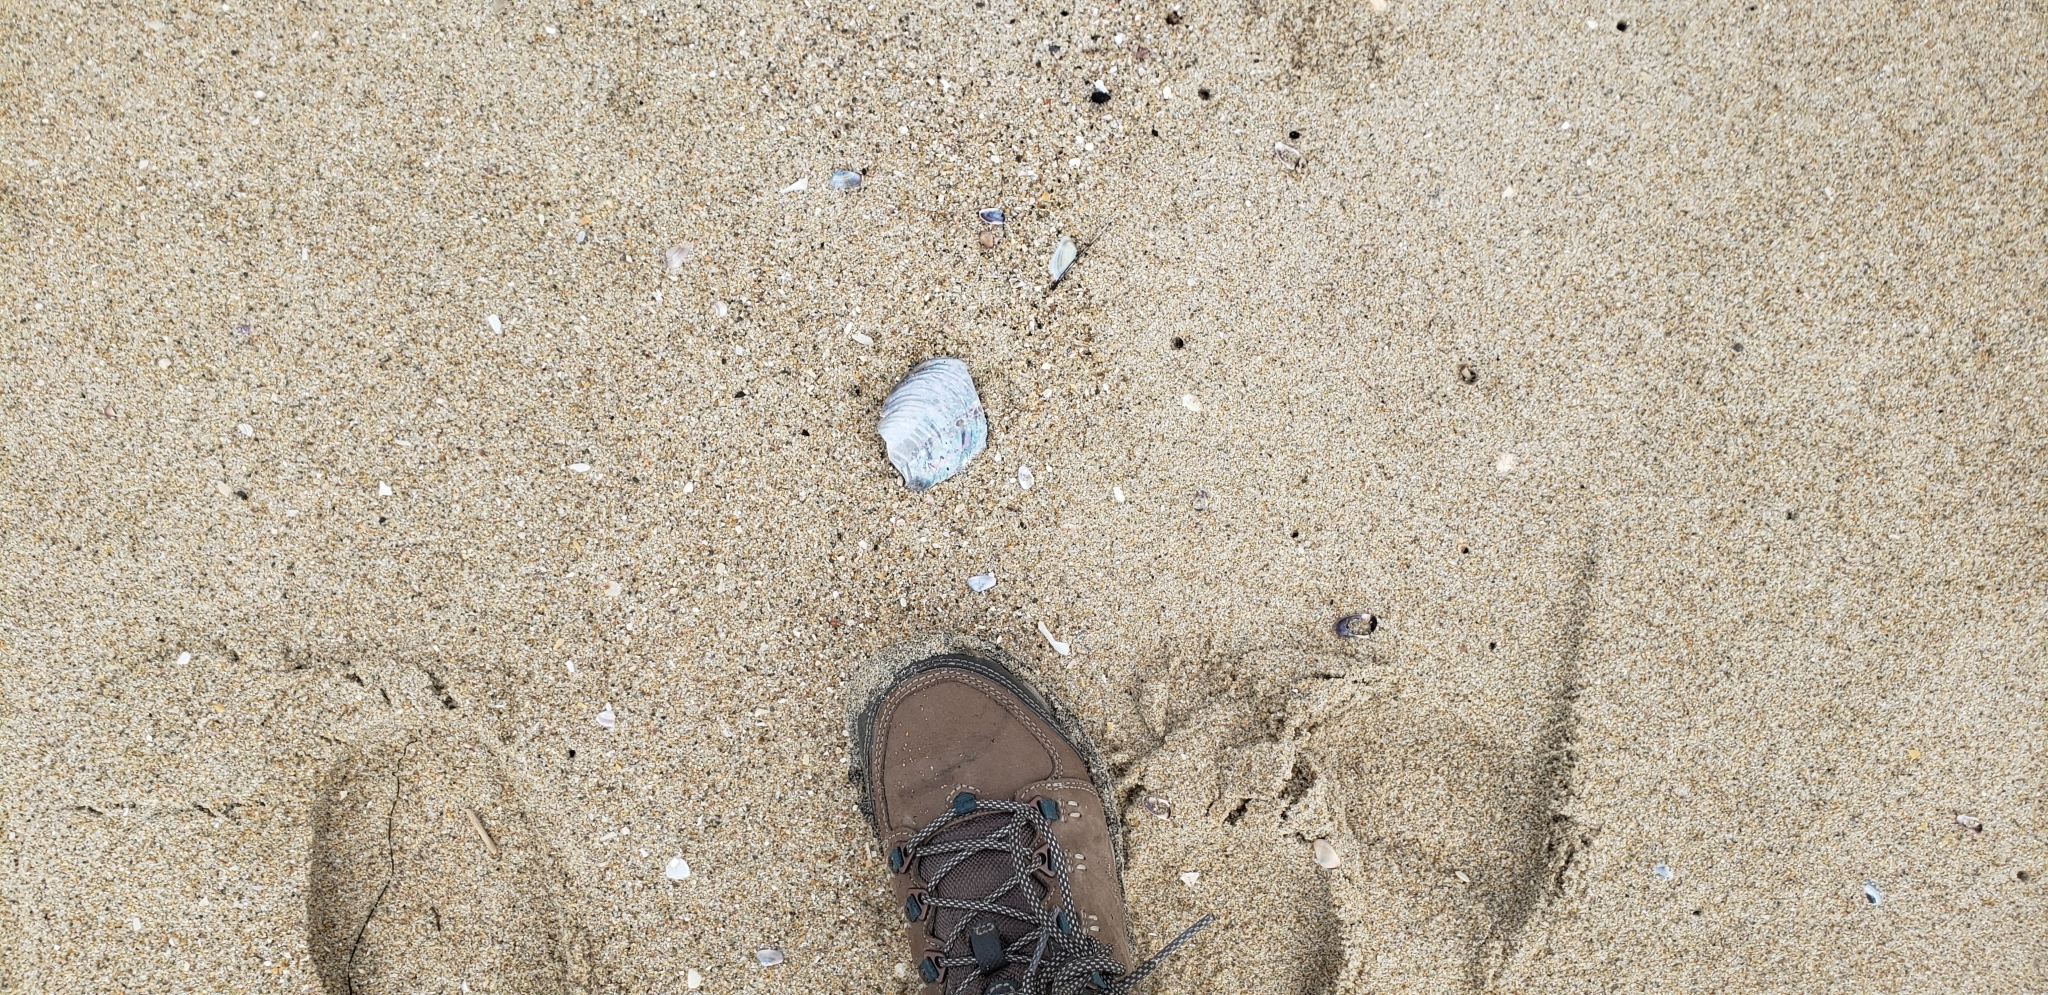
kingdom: Animalia
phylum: Mollusca
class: Bivalvia
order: Mytilida
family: Mytilidae
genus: Mytilus
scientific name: Mytilus californianus
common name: California mussel
